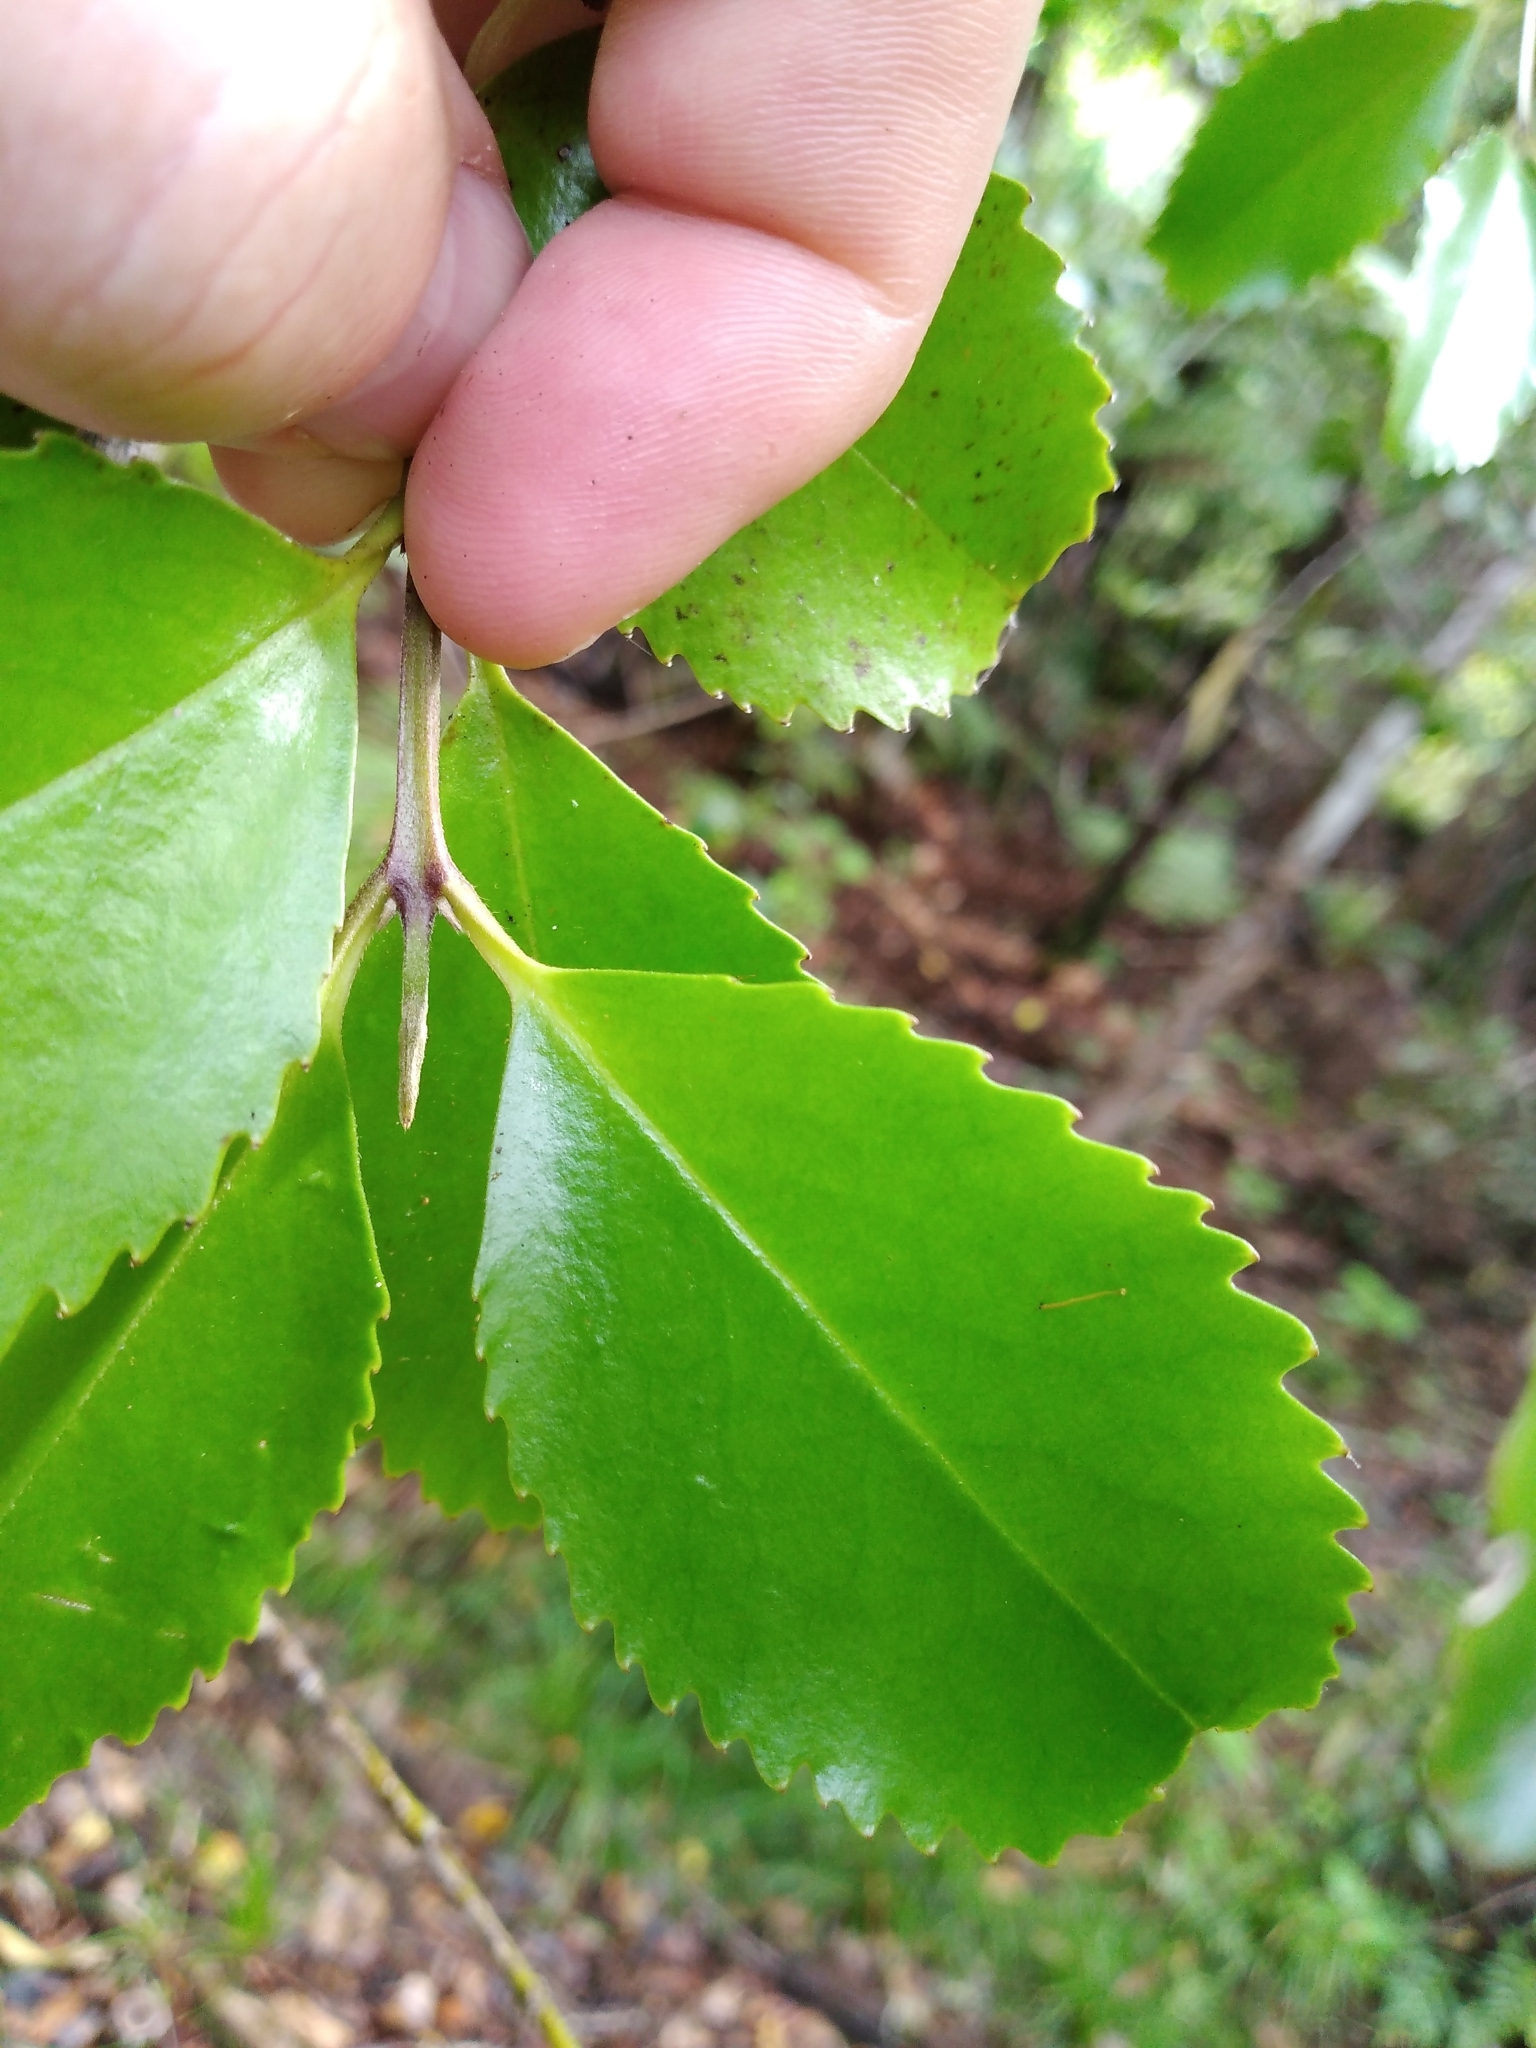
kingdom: Plantae
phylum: Tracheophyta
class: Magnoliopsida
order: Laurales
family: Atherospermataceae
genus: Laurelia
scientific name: Laurelia novae-zelandiae
